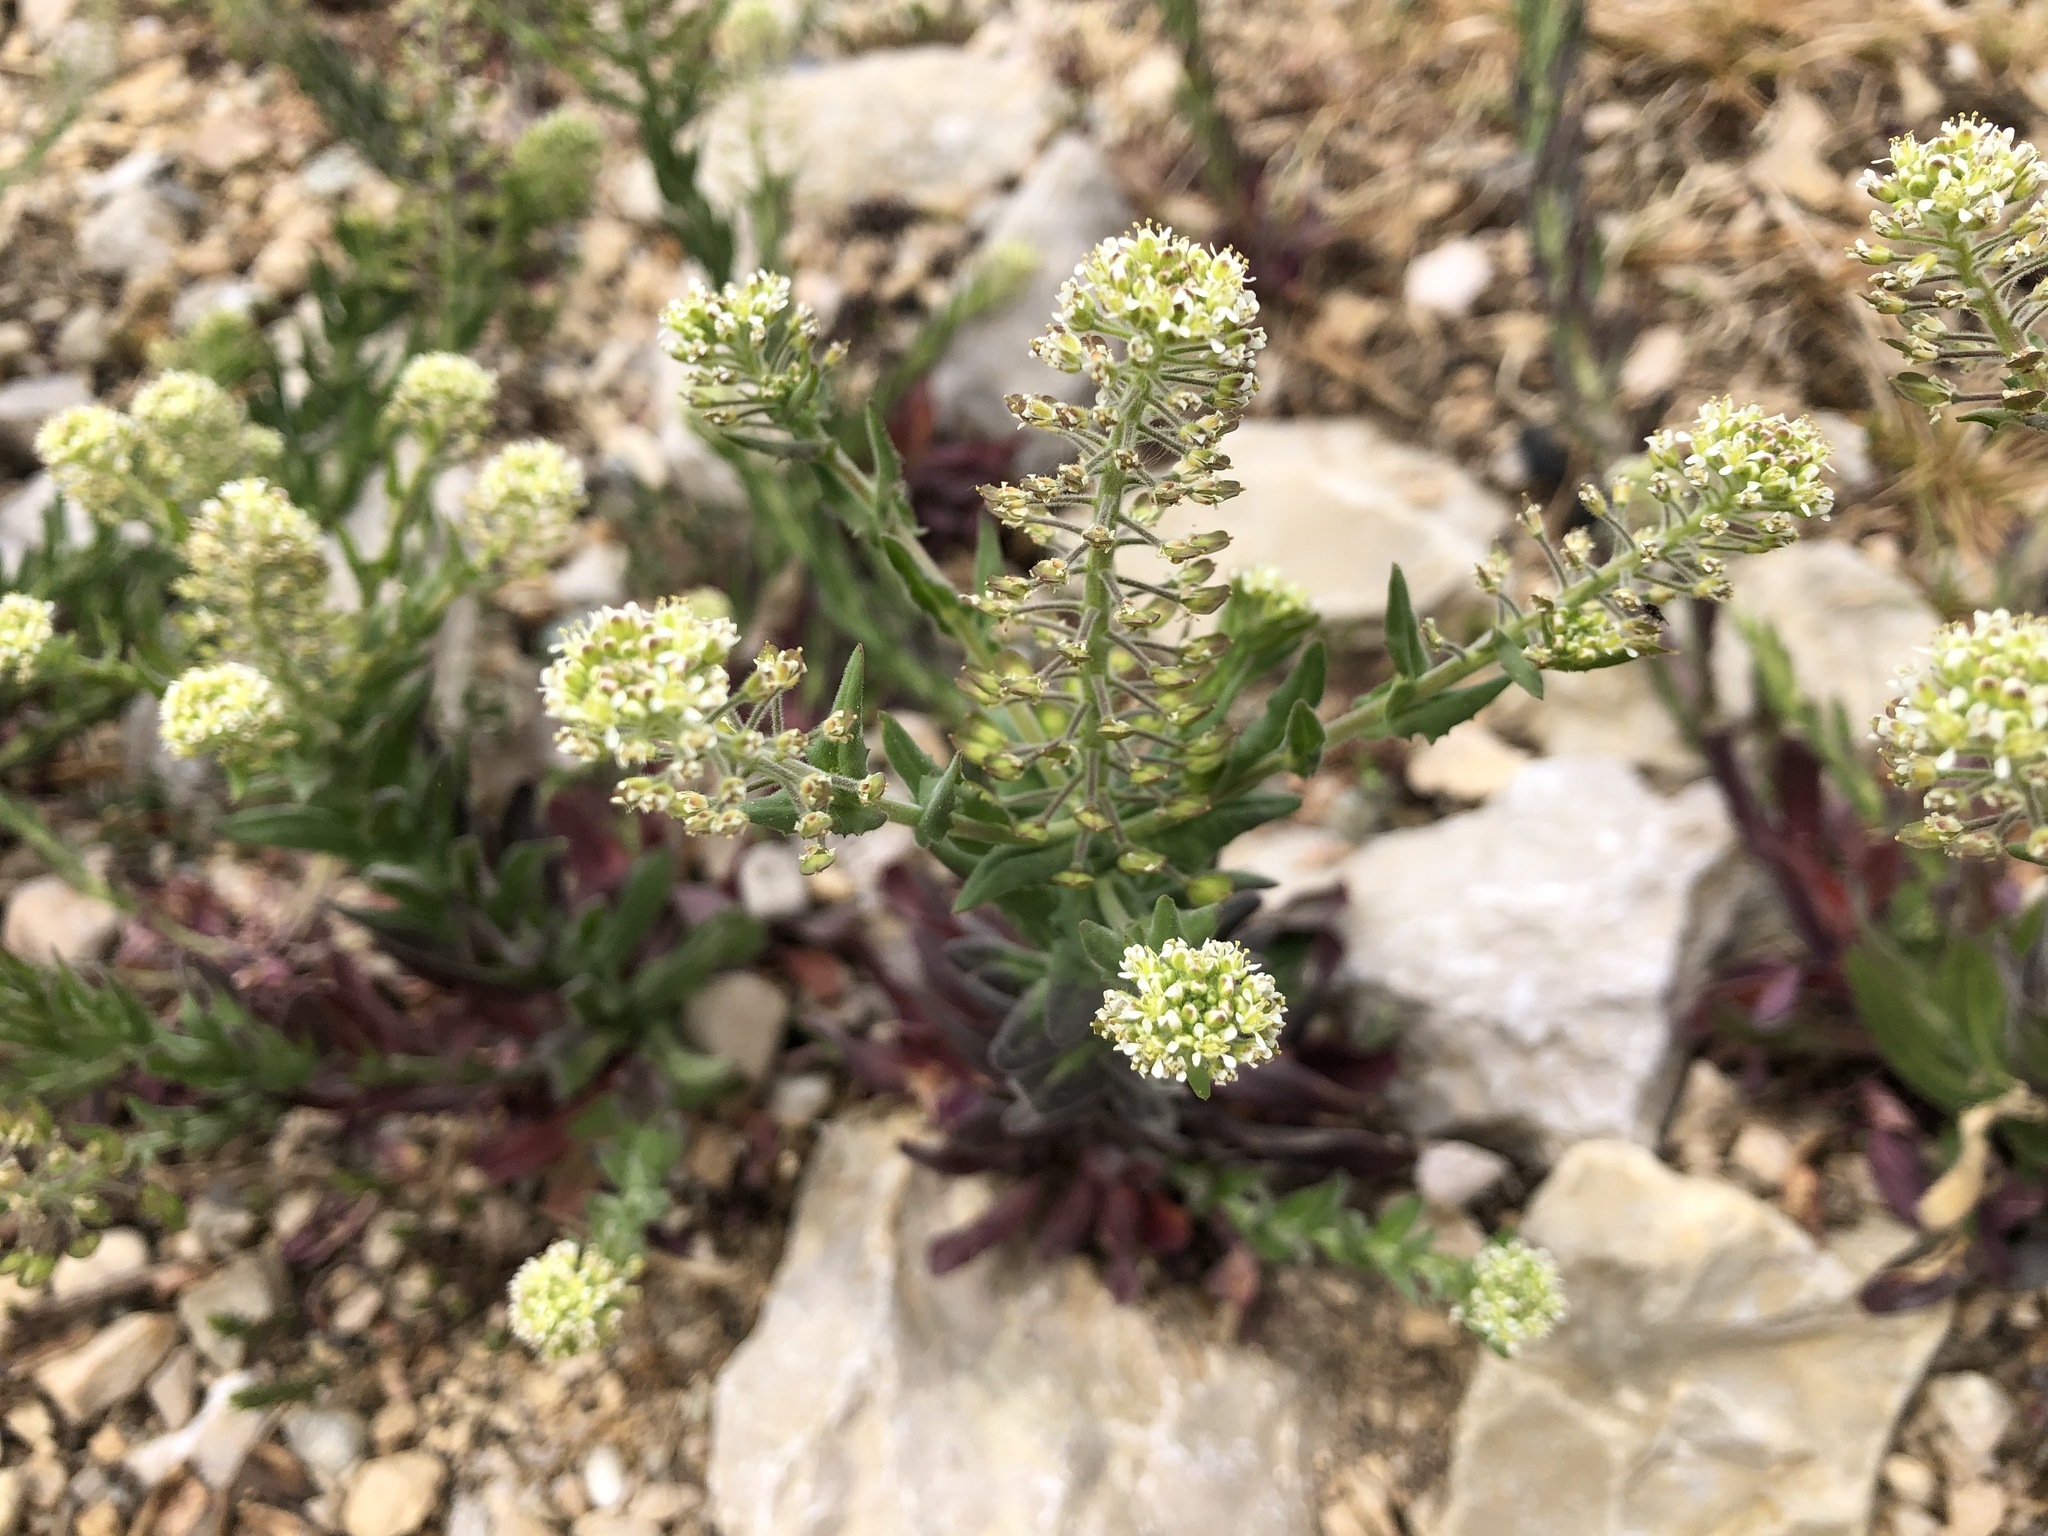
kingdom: Plantae
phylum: Tracheophyta
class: Magnoliopsida
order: Brassicales
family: Brassicaceae
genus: Lepidium
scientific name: Lepidium campestre
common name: Field pepperwort
